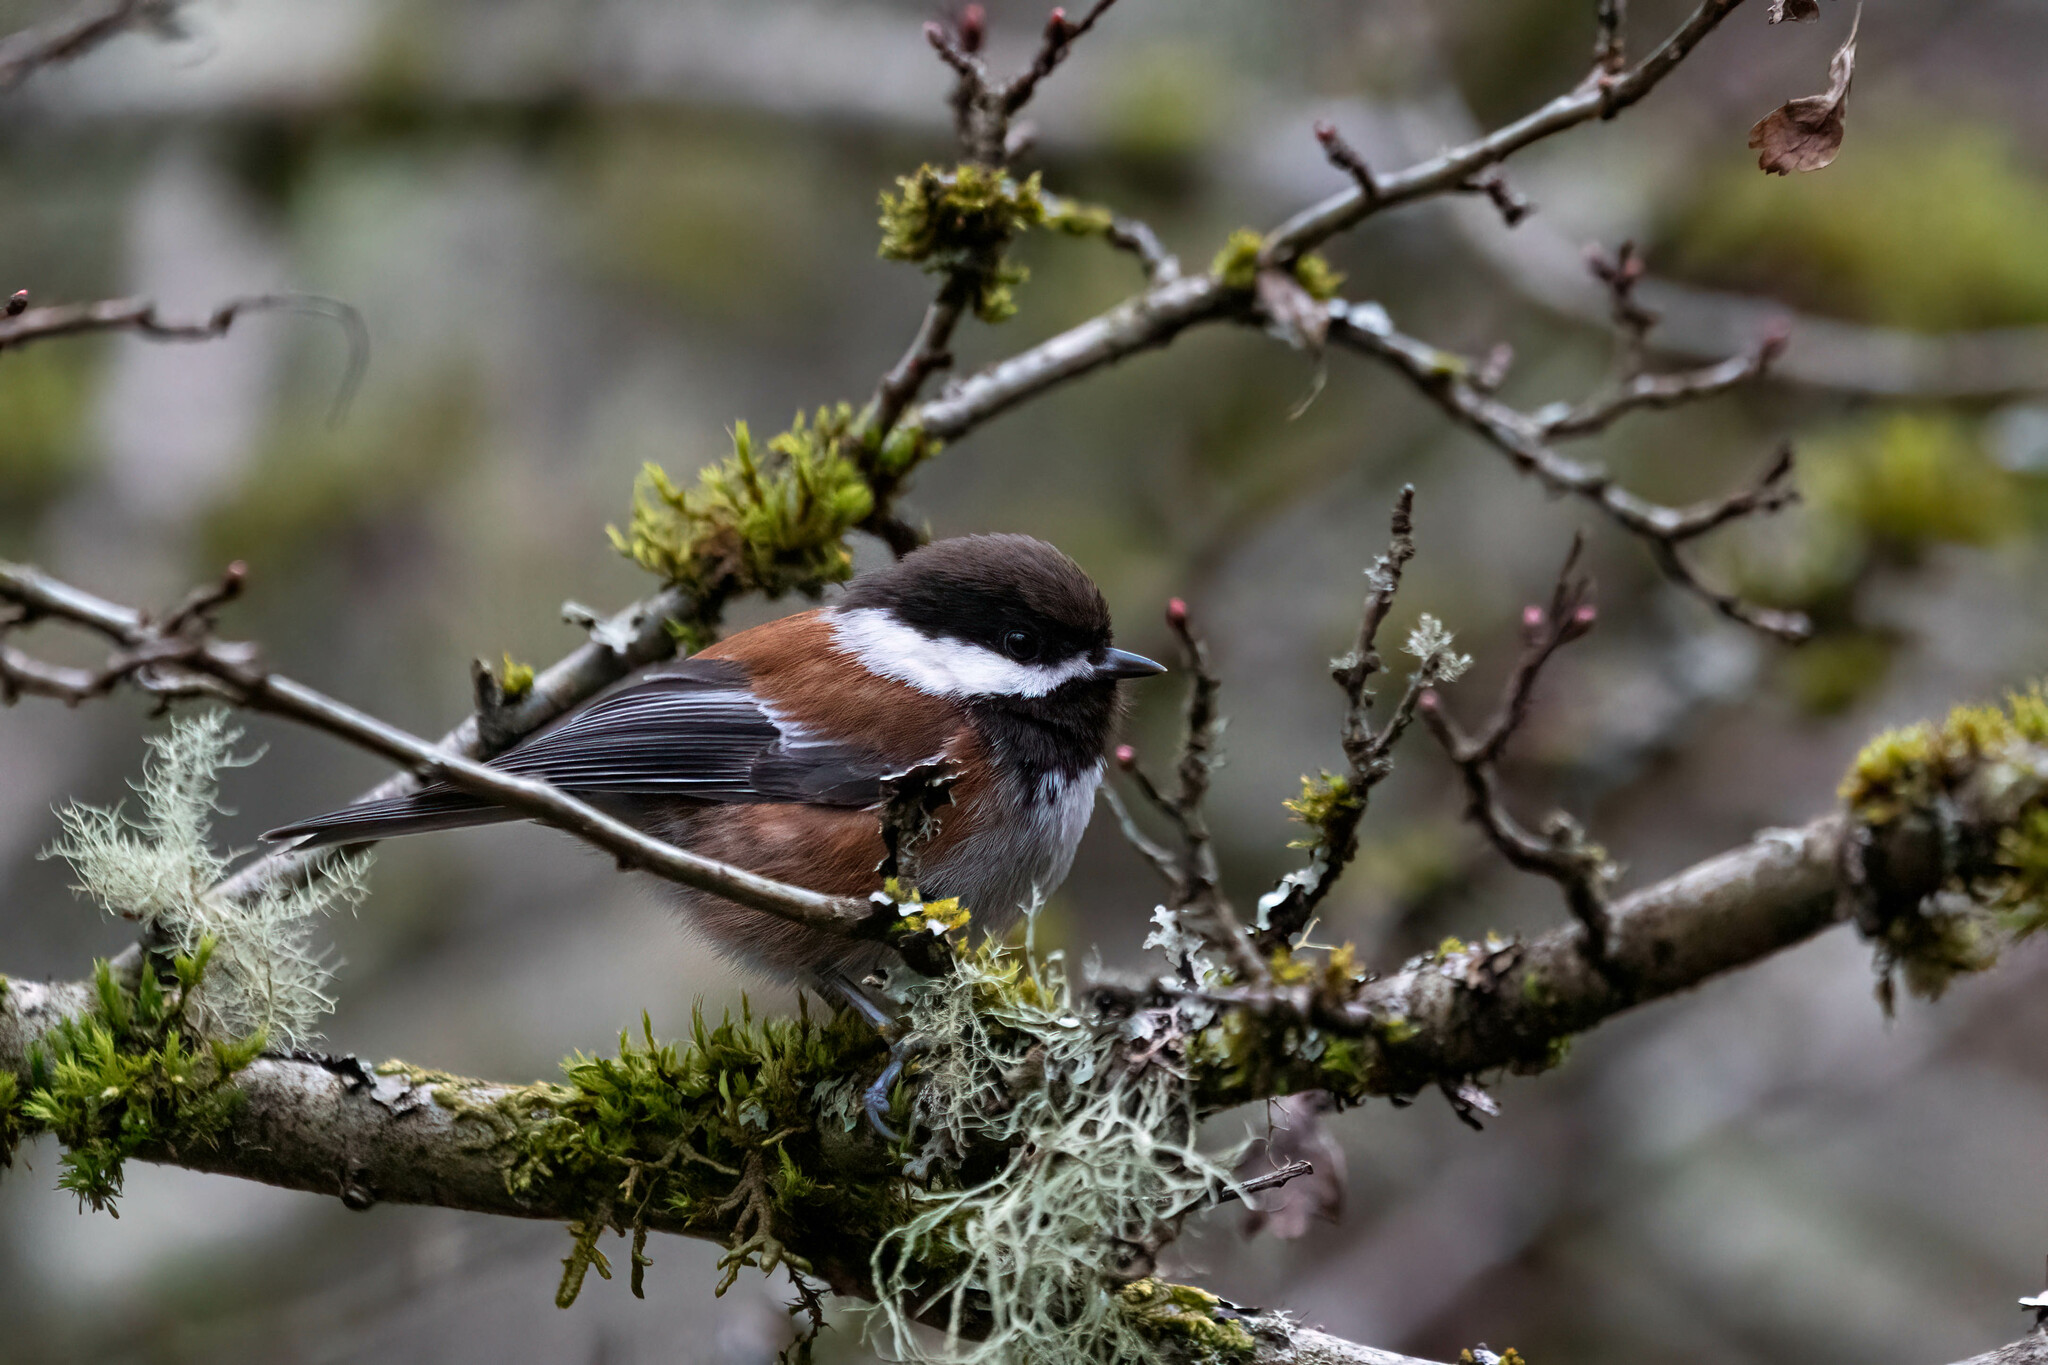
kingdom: Animalia
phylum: Chordata
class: Aves
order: Passeriformes
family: Paridae
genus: Poecile
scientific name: Poecile rufescens
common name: Chestnut-backed chickadee
